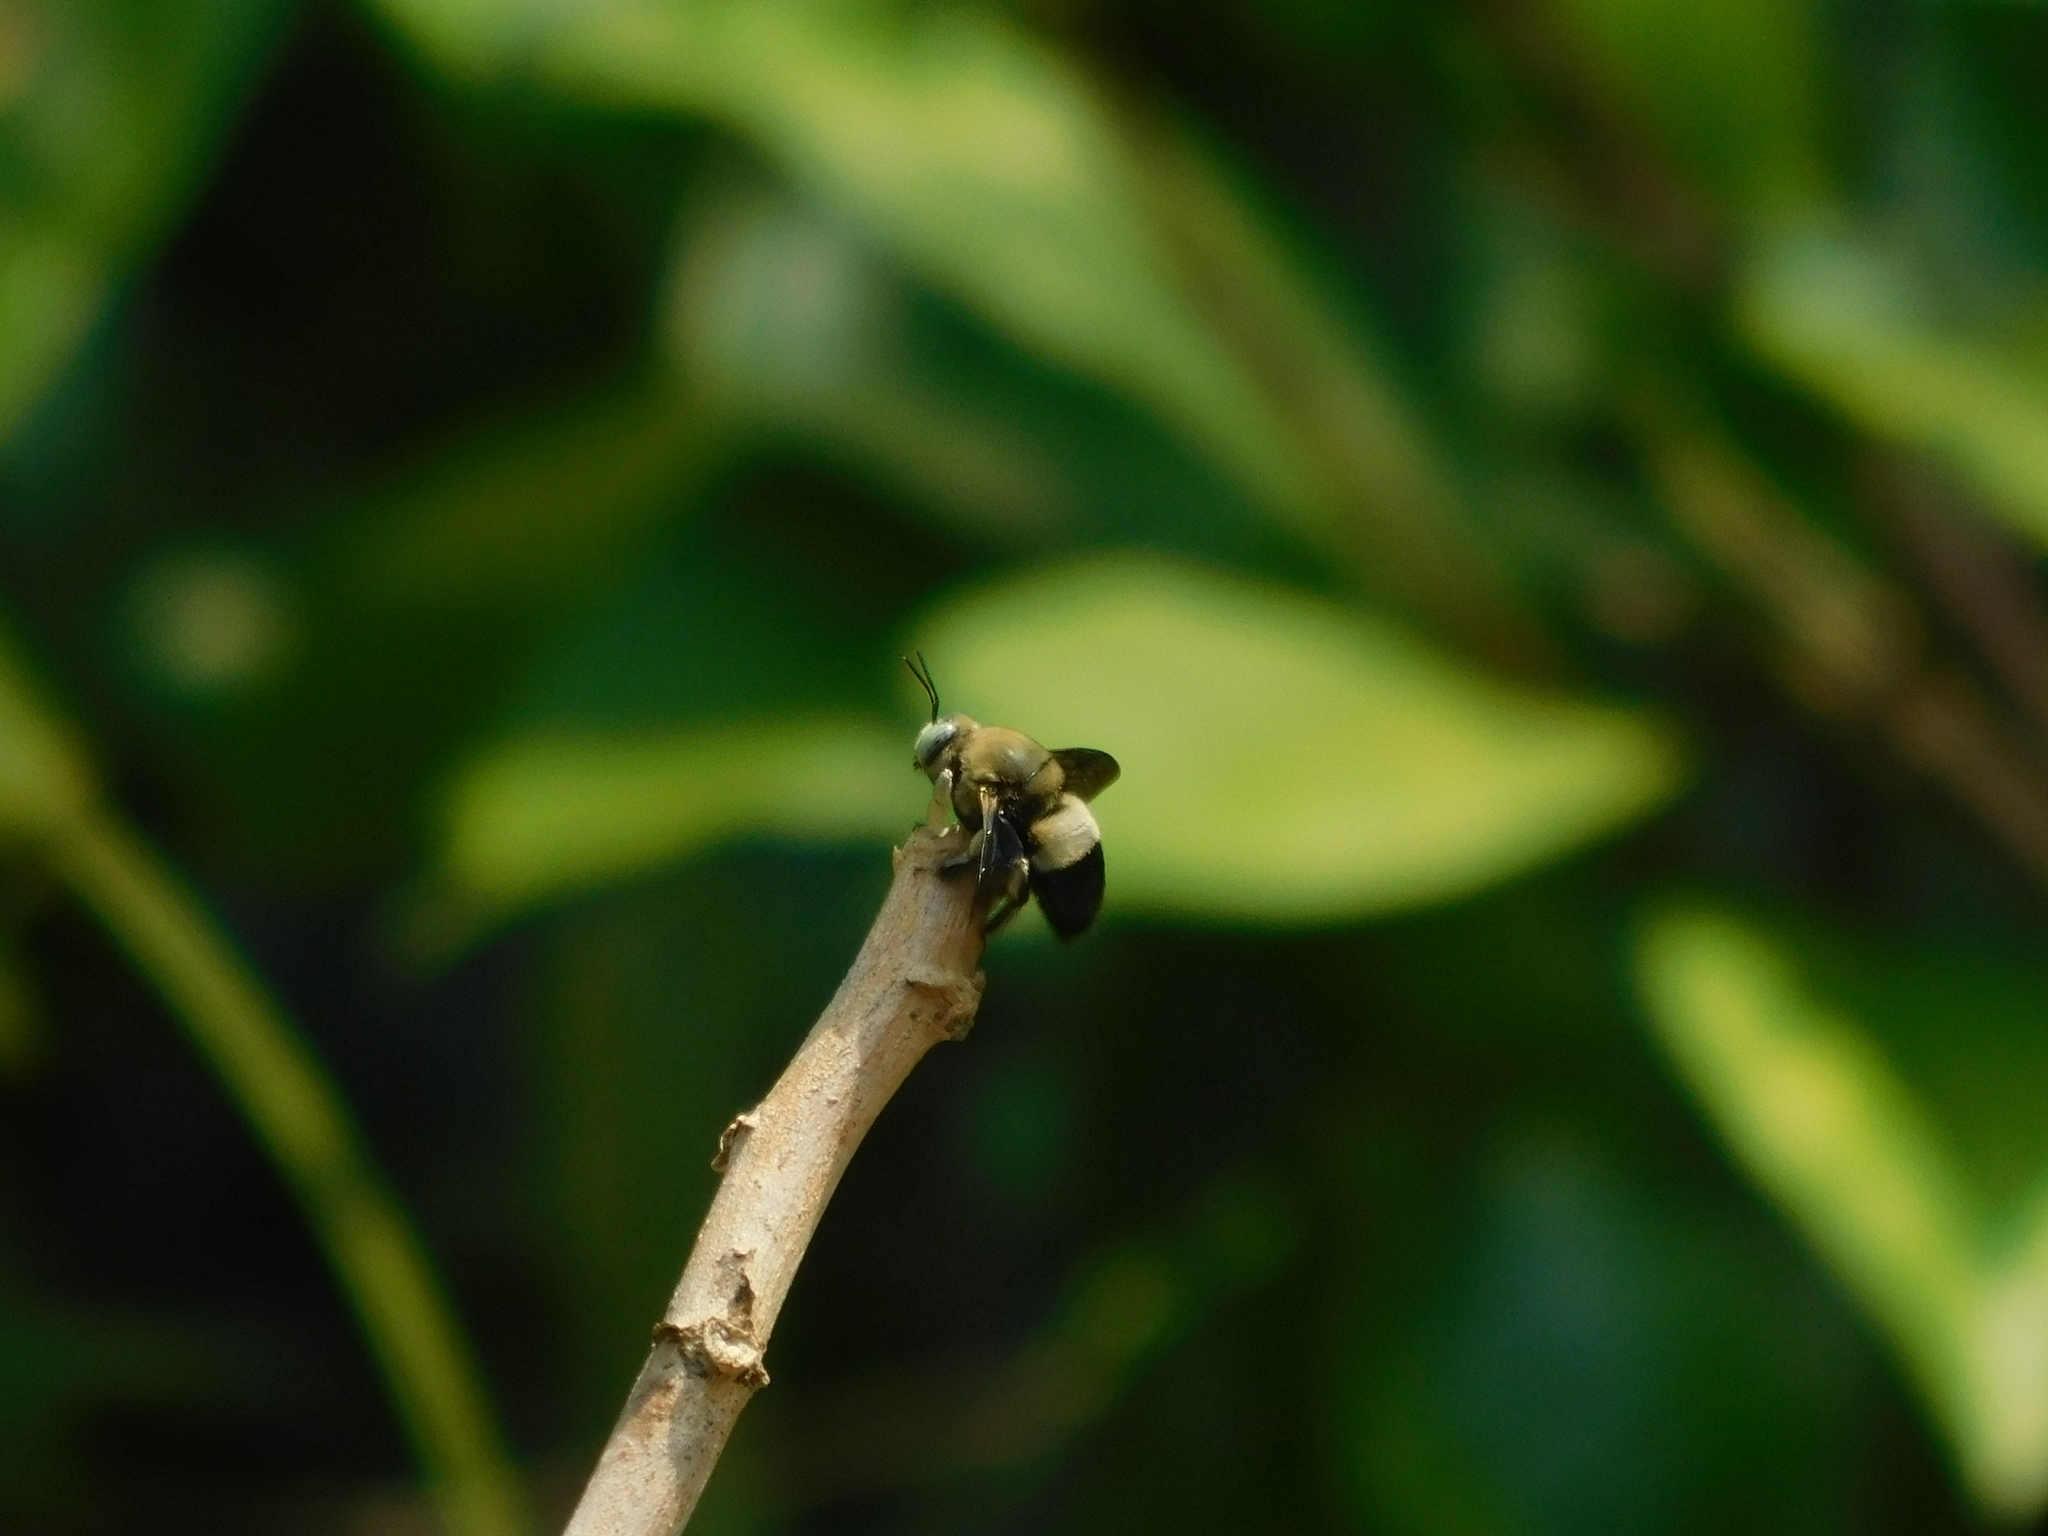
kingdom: Animalia
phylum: Arthropoda
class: Insecta
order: Hymenoptera
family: Apidae
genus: Xylocopa
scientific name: Xylocopa dejeanii
